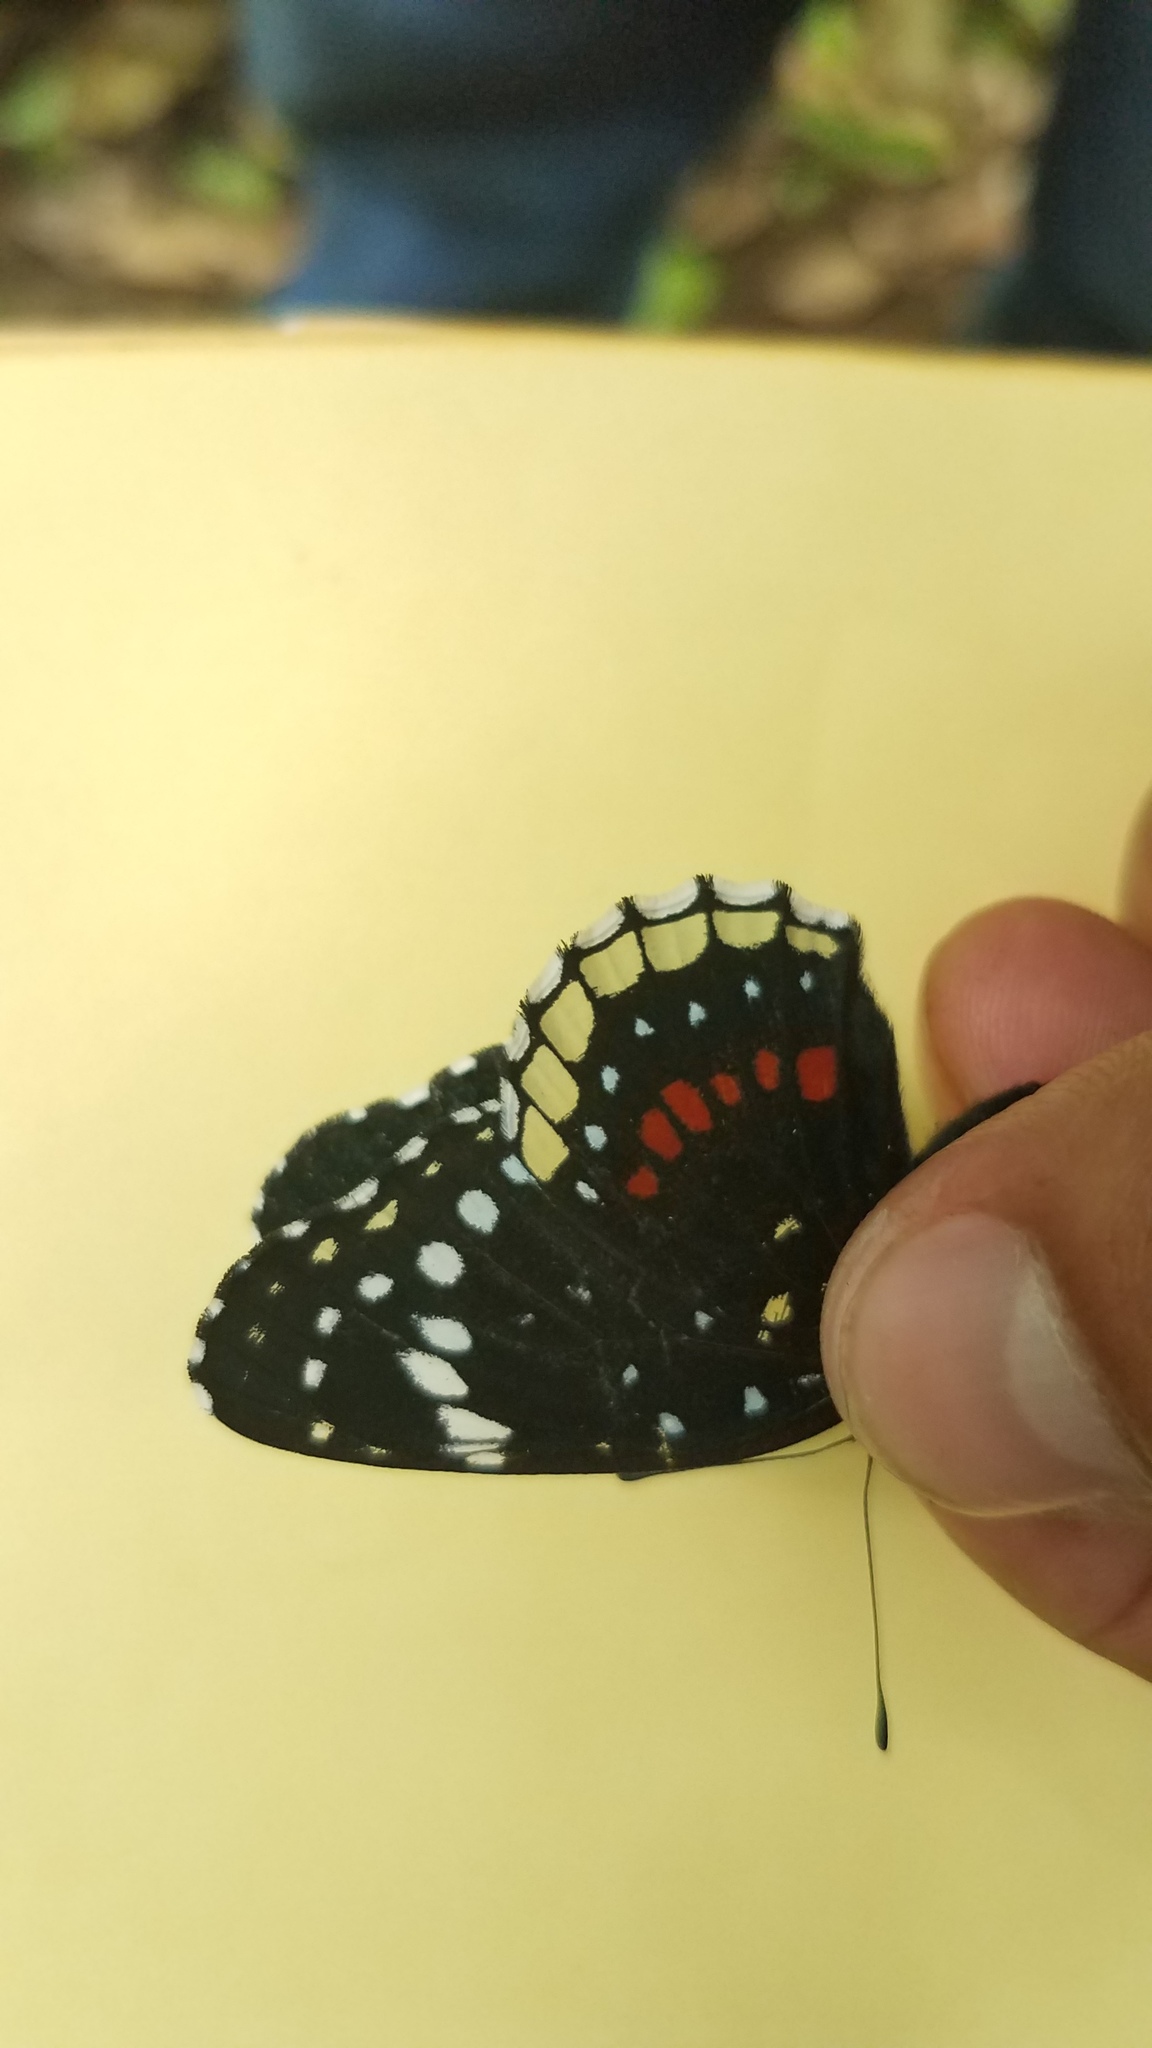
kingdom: Animalia
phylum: Arthropoda
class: Insecta
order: Lepidoptera
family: Nymphalidae
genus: Chlosyne
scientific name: Chlosyne hippodrome
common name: Simple patch
